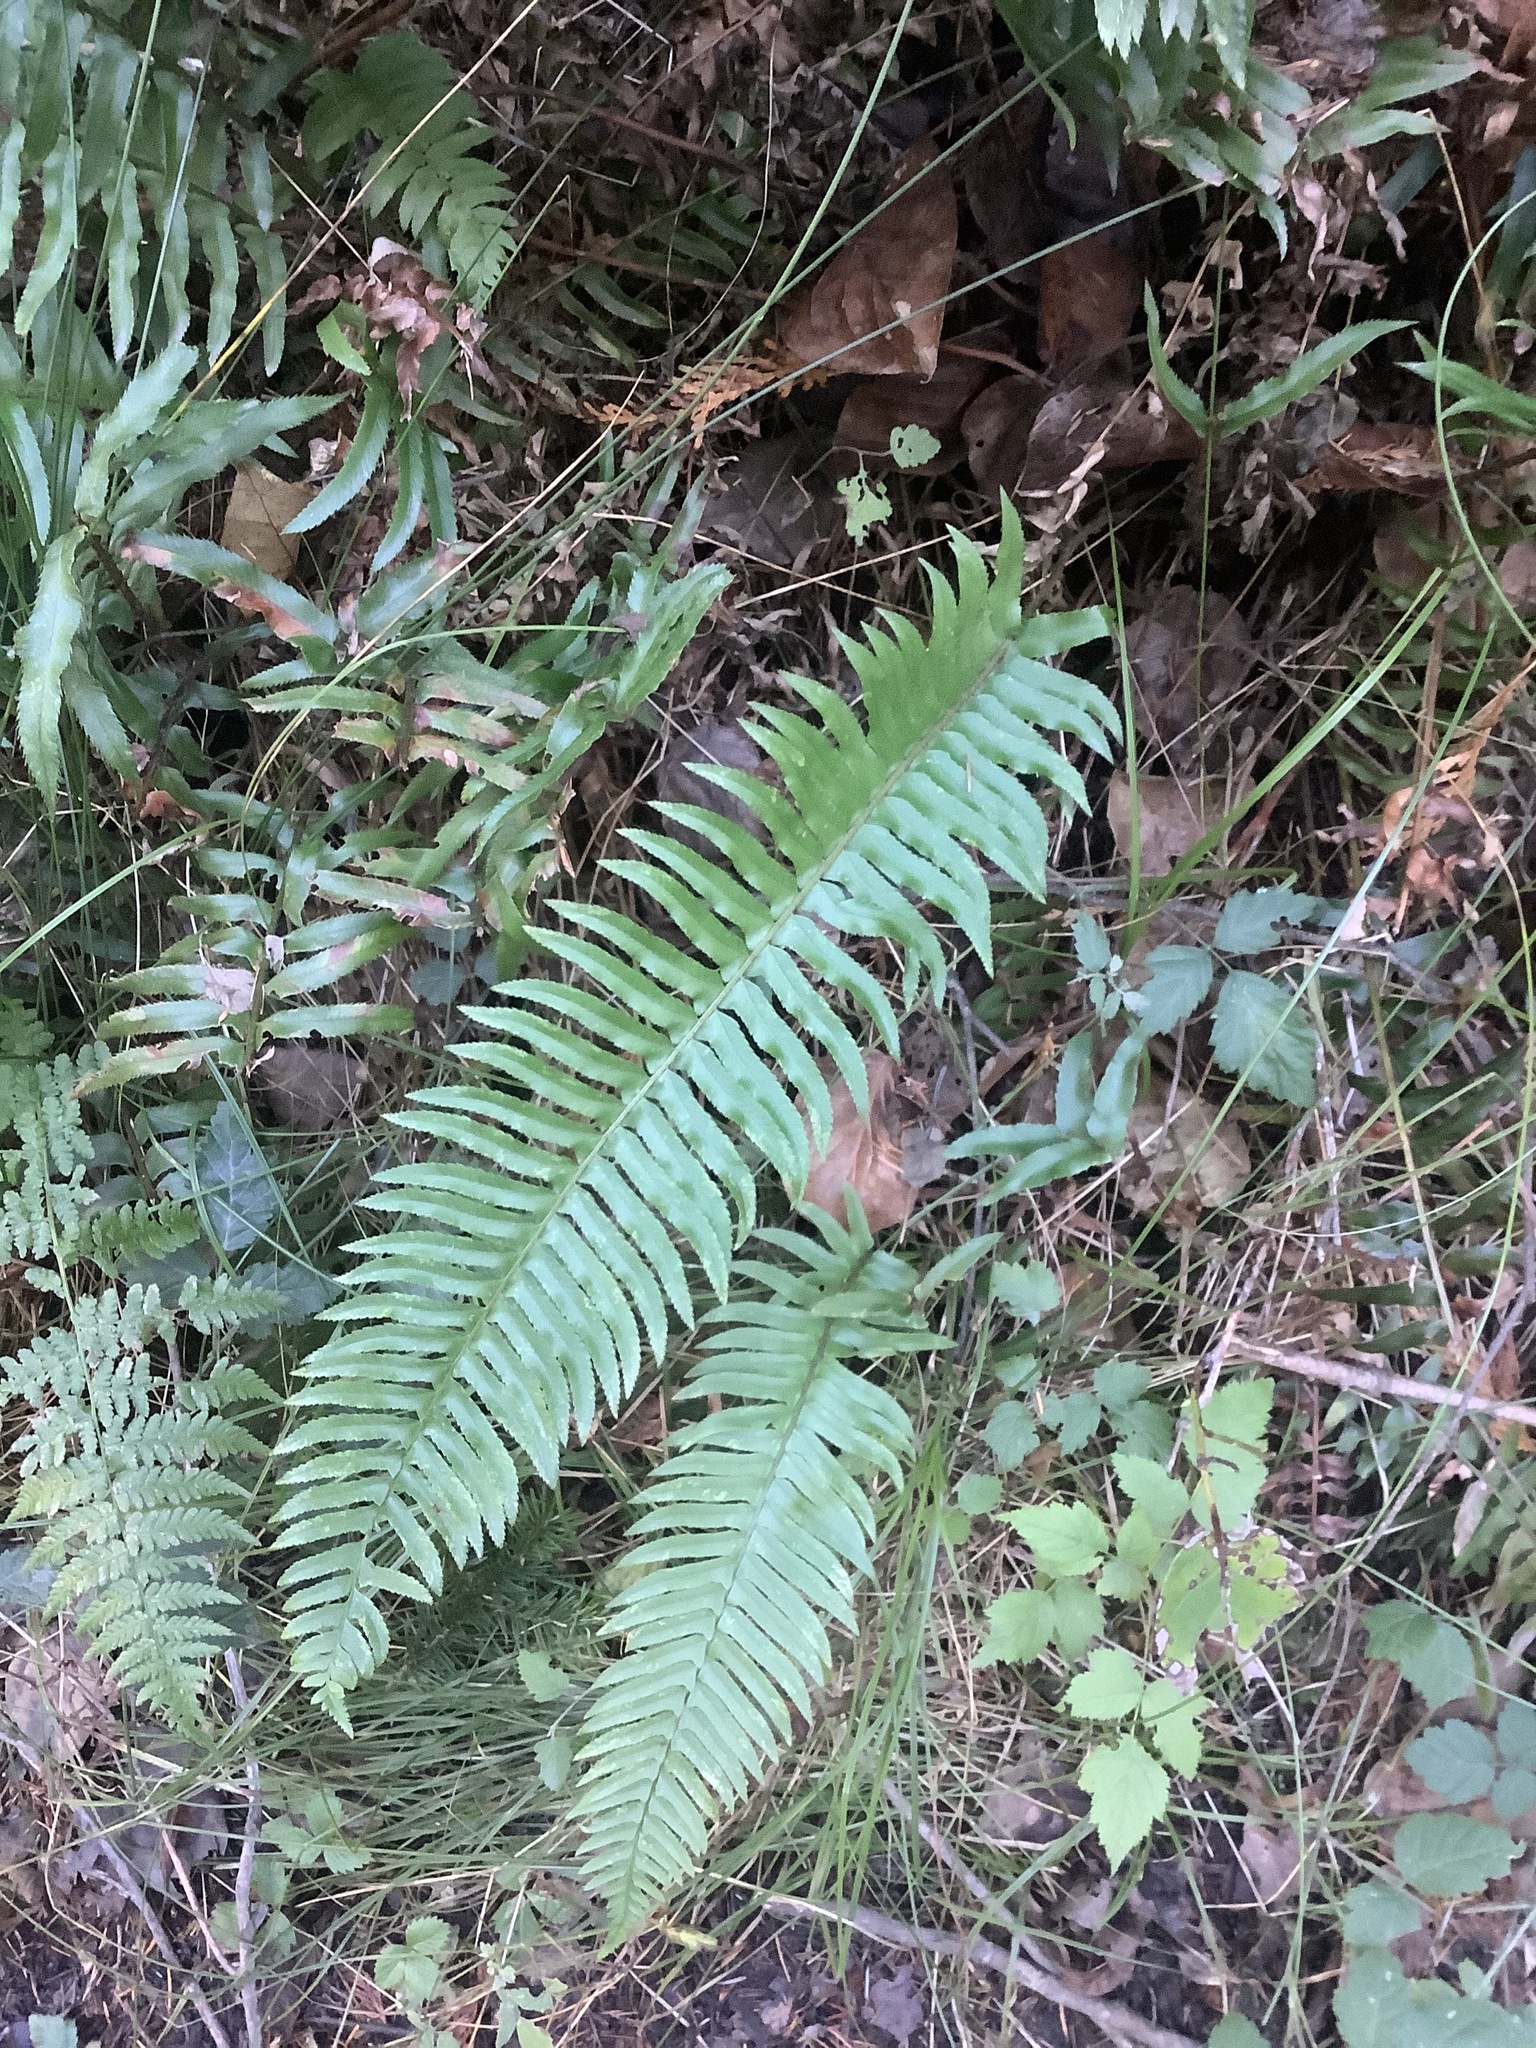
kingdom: Plantae
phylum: Tracheophyta
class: Polypodiopsida
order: Polypodiales
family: Dryopteridaceae
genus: Polystichum
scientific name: Polystichum munitum
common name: Western sword-fern
